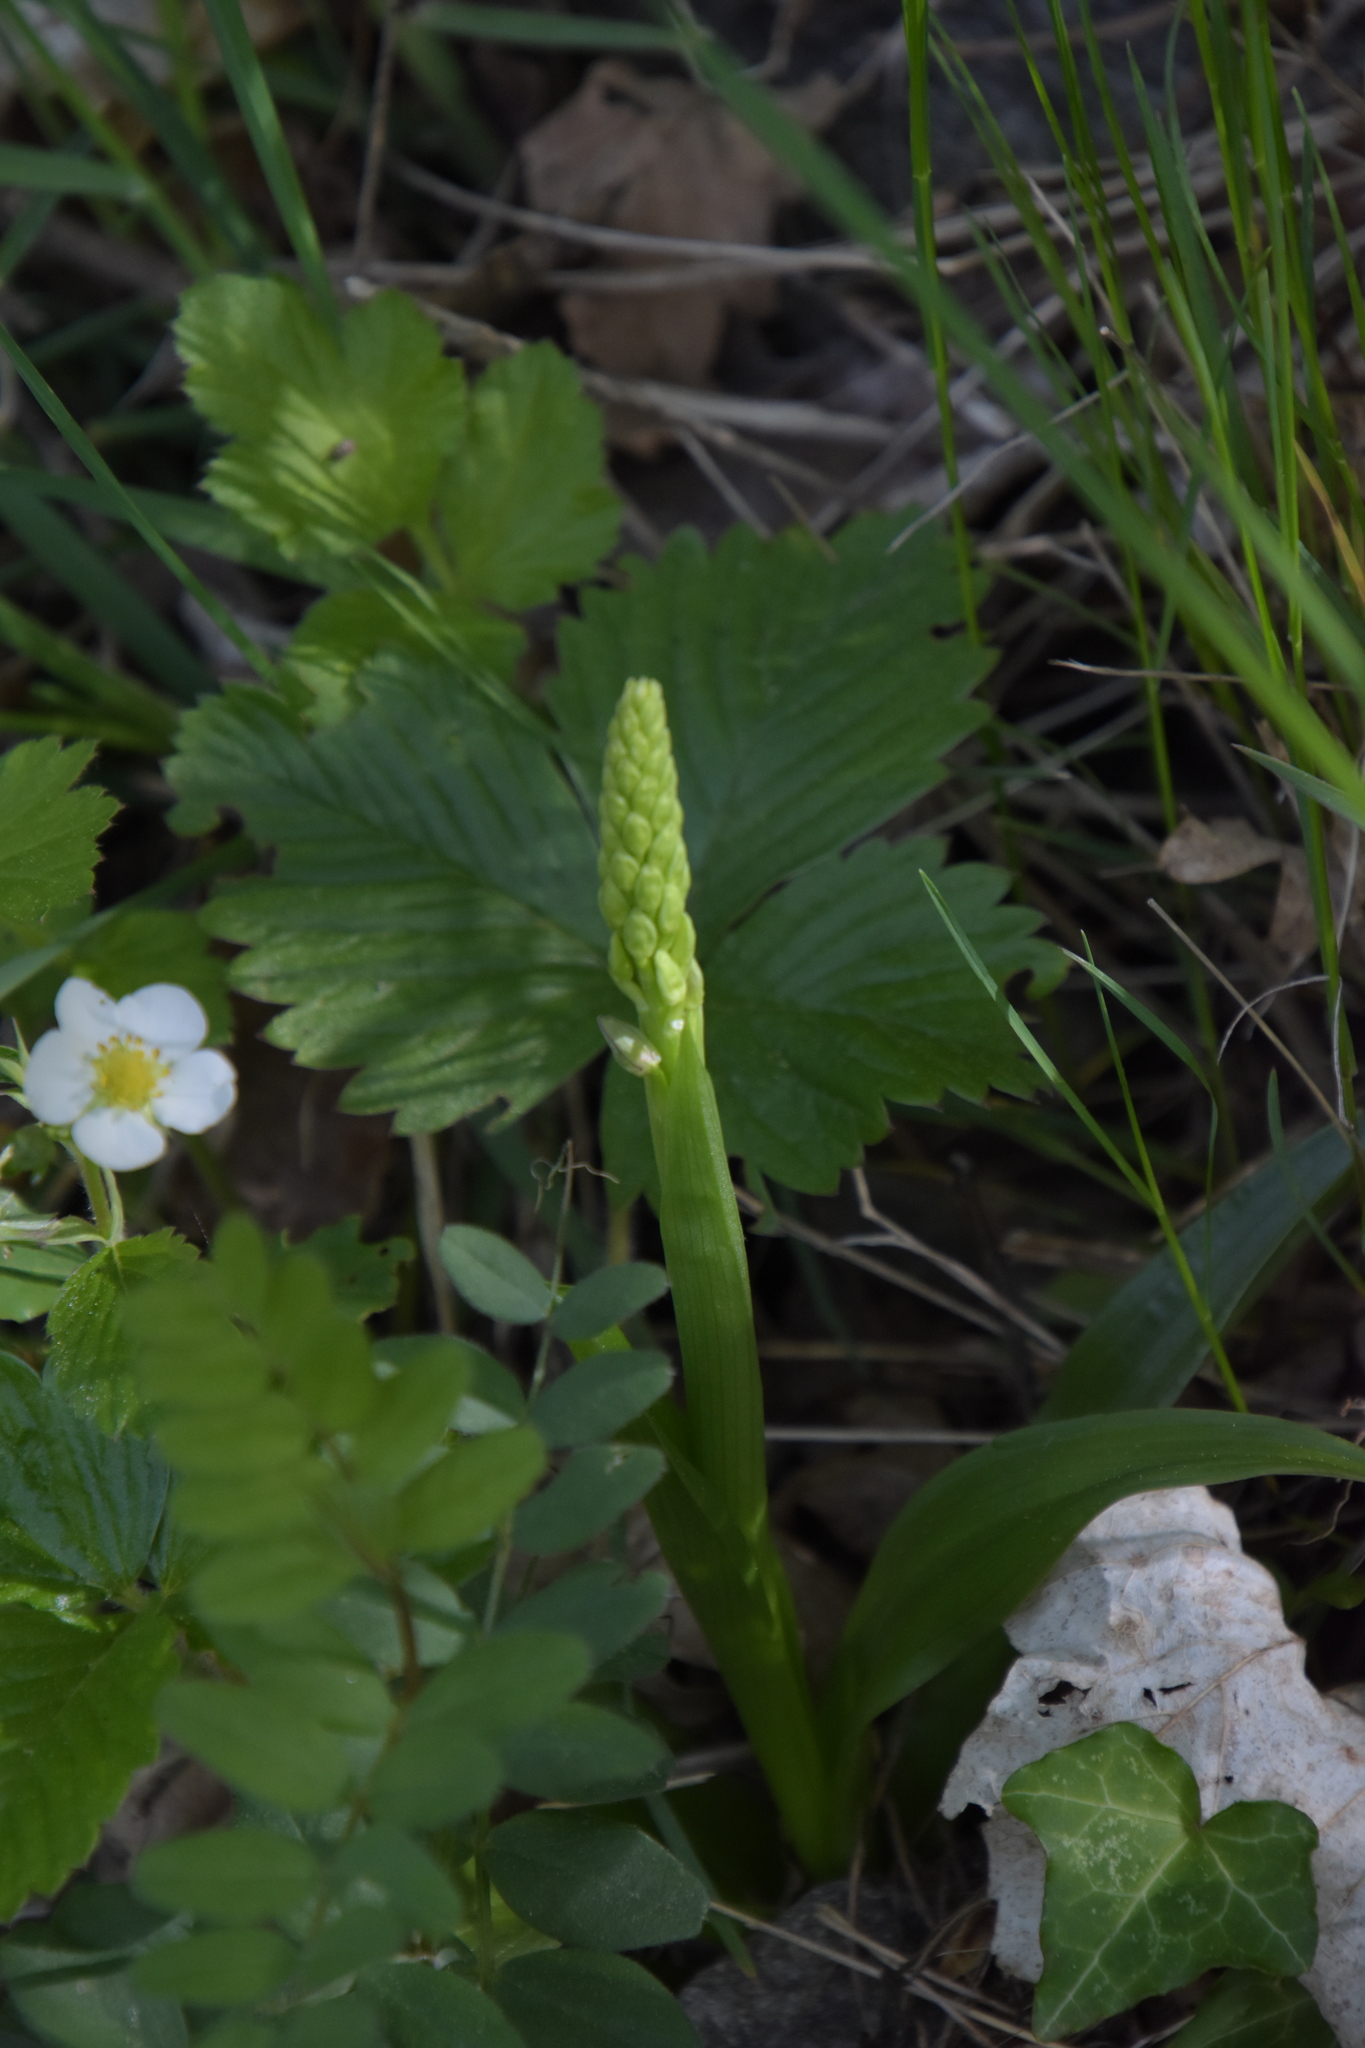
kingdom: Plantae
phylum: Tracheophyta
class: Liliopsida
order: Asparagales
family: Orchidaceae
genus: Orchis
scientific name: Orchis anthropophora
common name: Man orchid
